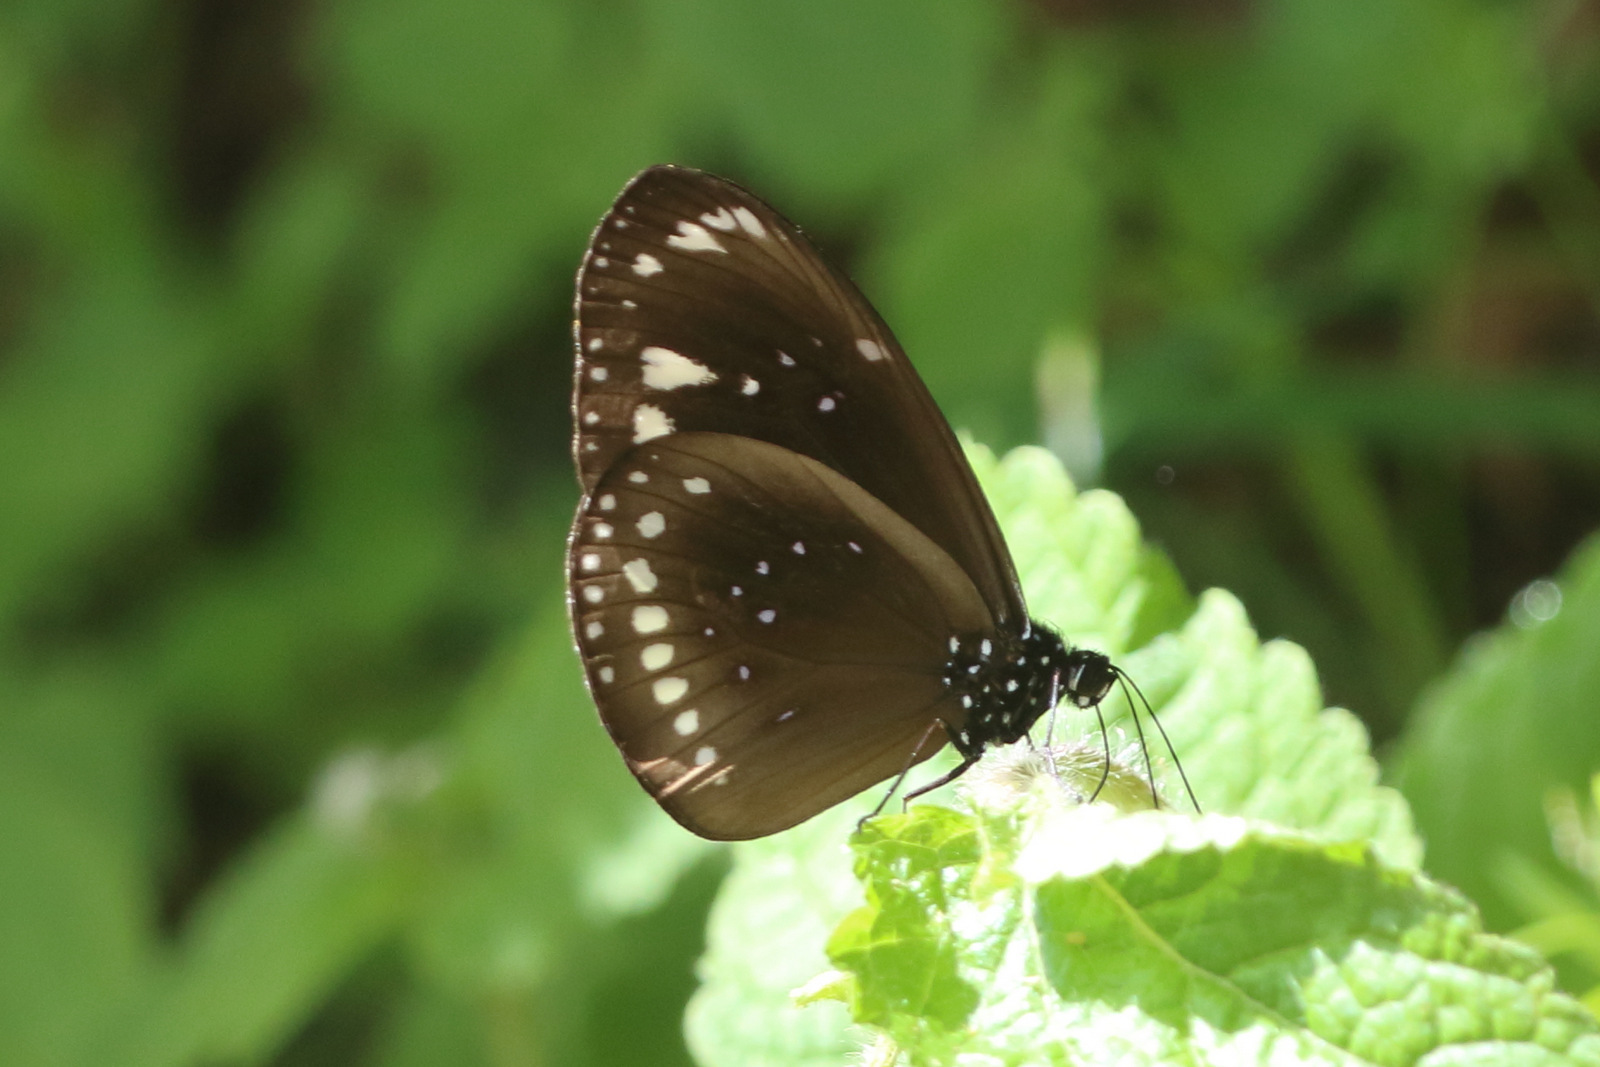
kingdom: Animalia
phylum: Arthropoda
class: Insecta
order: Lepidoptera
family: Nymphalidae
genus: Euploea
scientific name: Euploea lewinii
